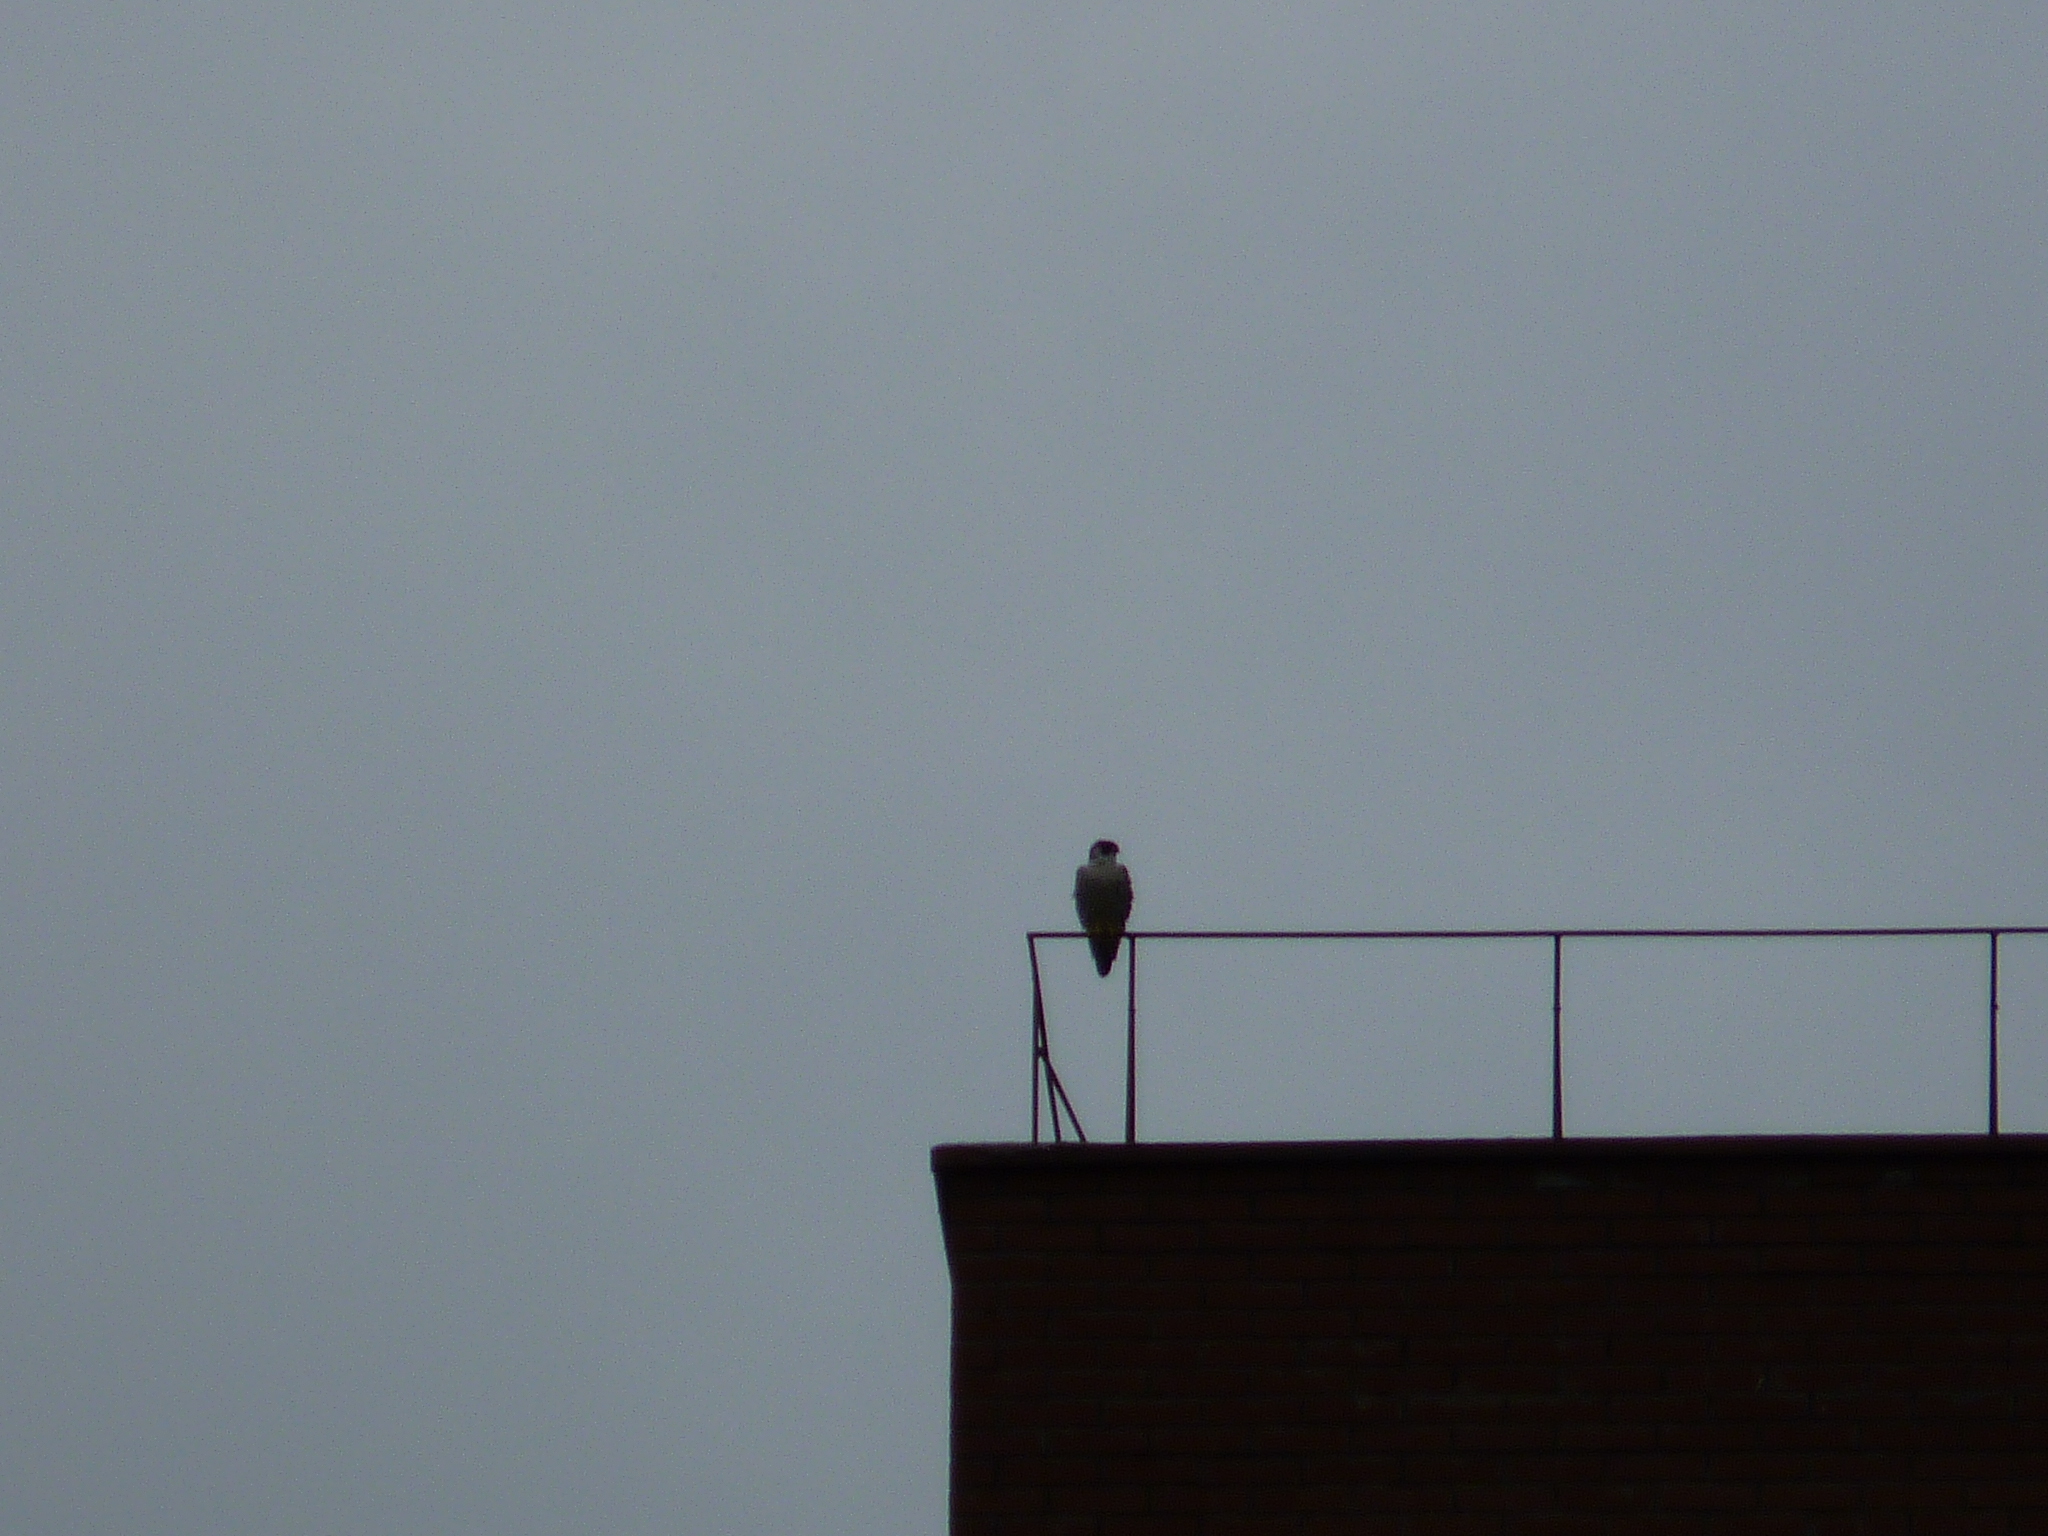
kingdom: Animalia
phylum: Chordata
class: Aves
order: Falconiformes
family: Falconidae
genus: Falco
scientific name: Falco peregrinus
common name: Peregrine falcon
